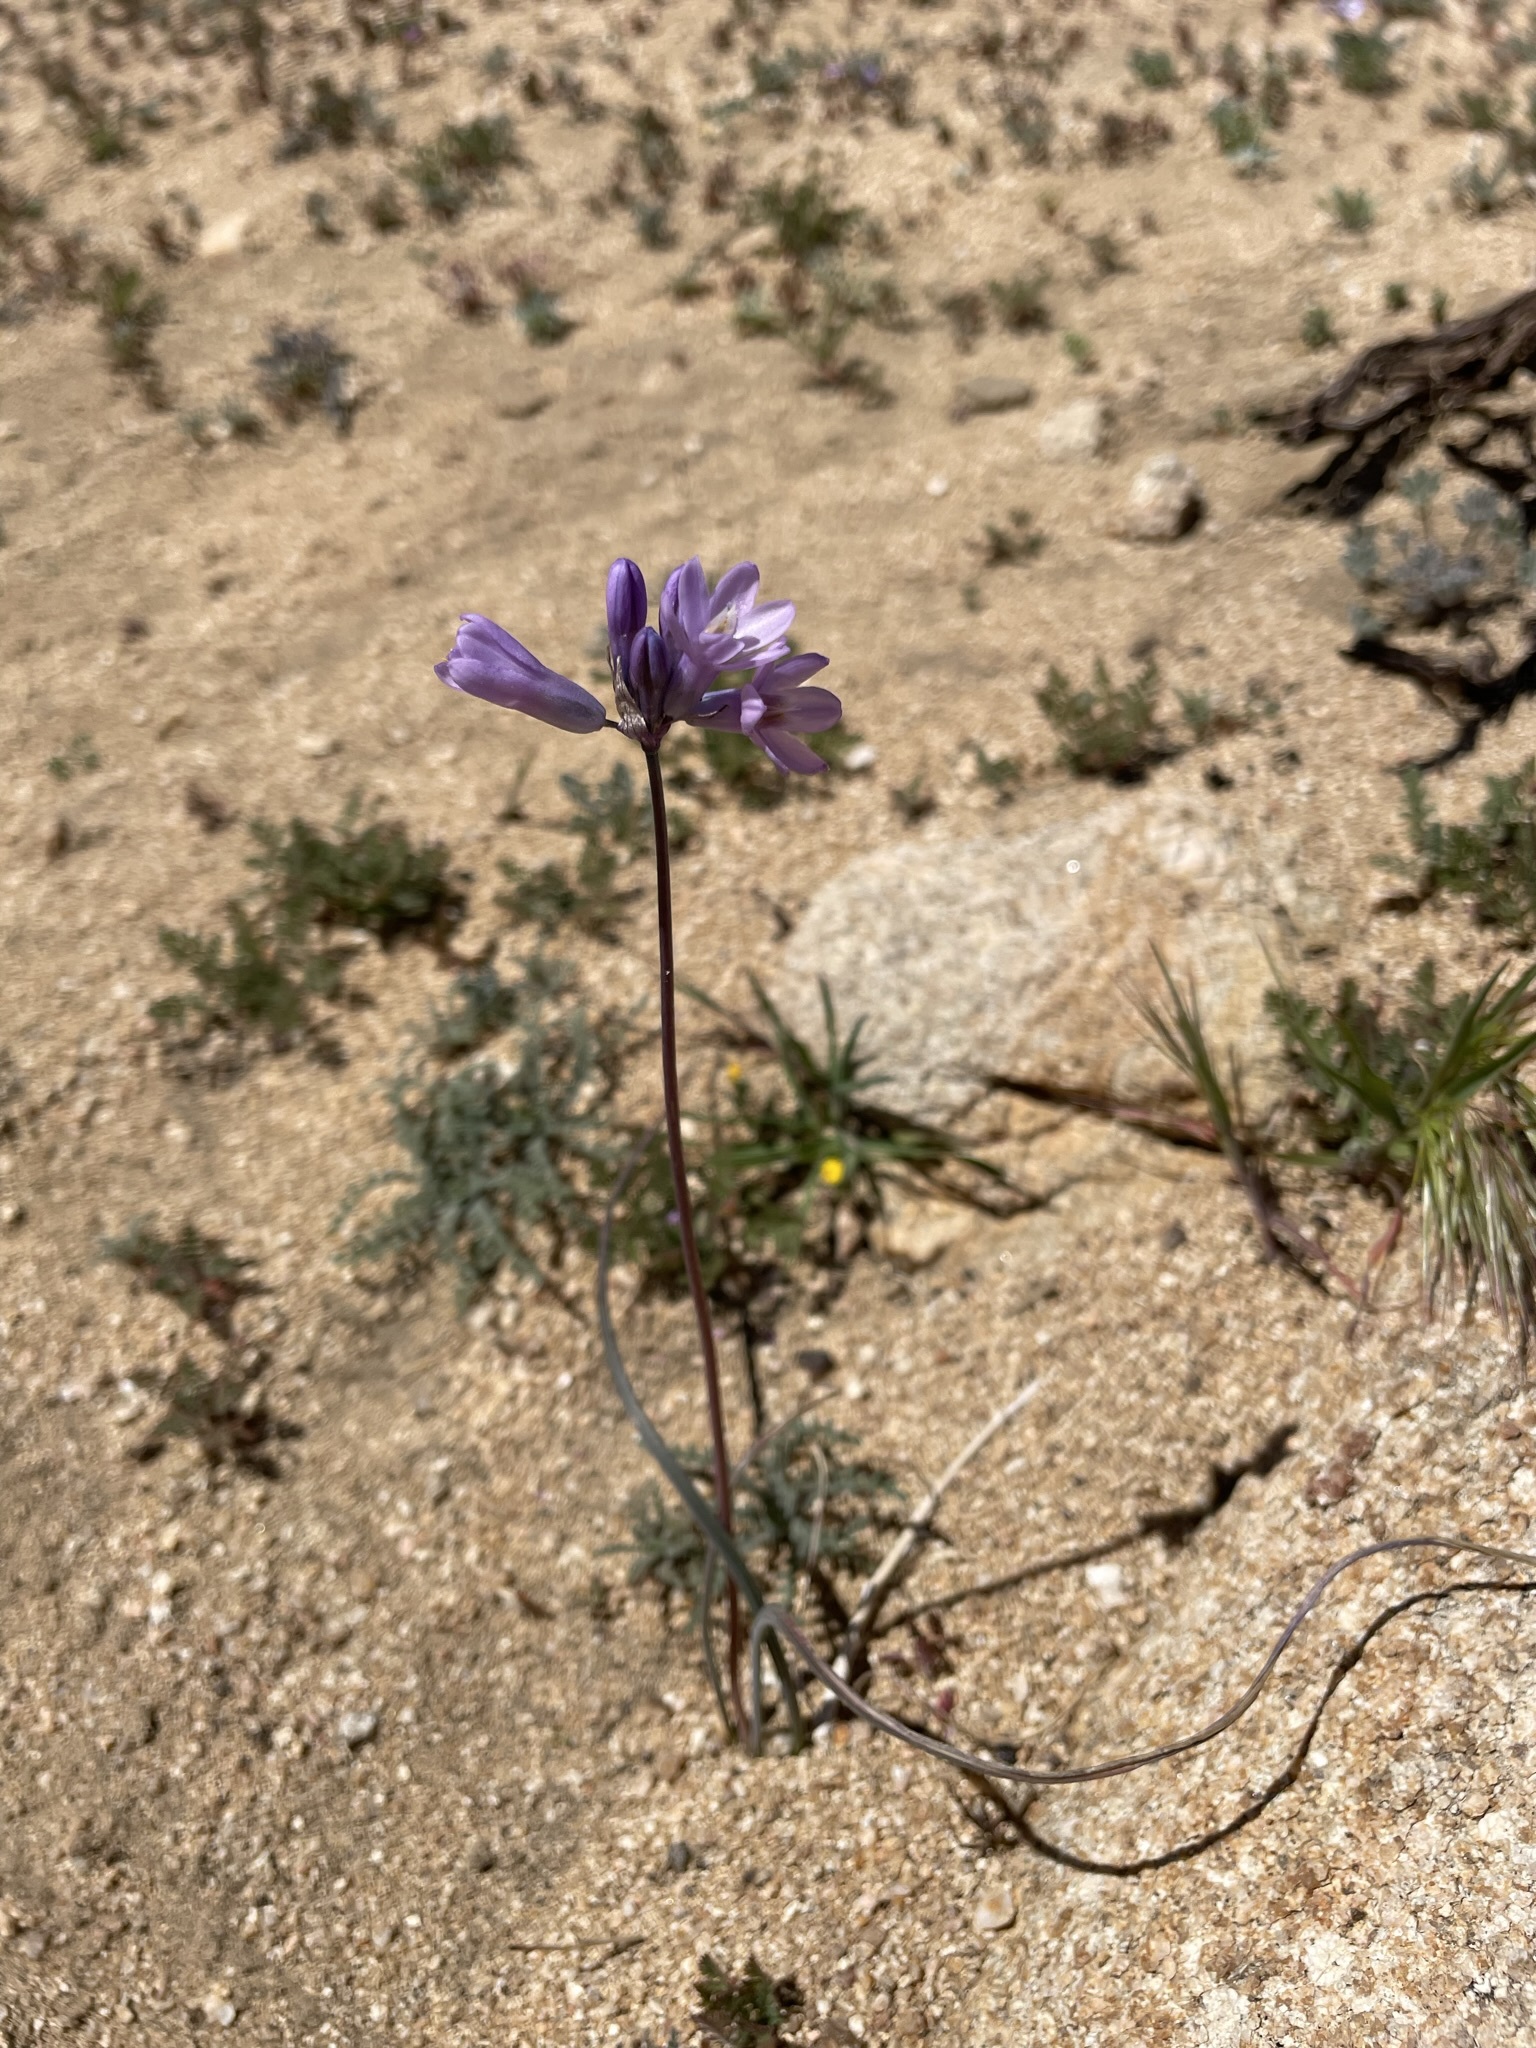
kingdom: Plantae
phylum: Tracheophyta
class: Liliopsida
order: Asparagales
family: Asparagaceae
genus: Dipterostemon
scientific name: Dipterostemon capitatus
